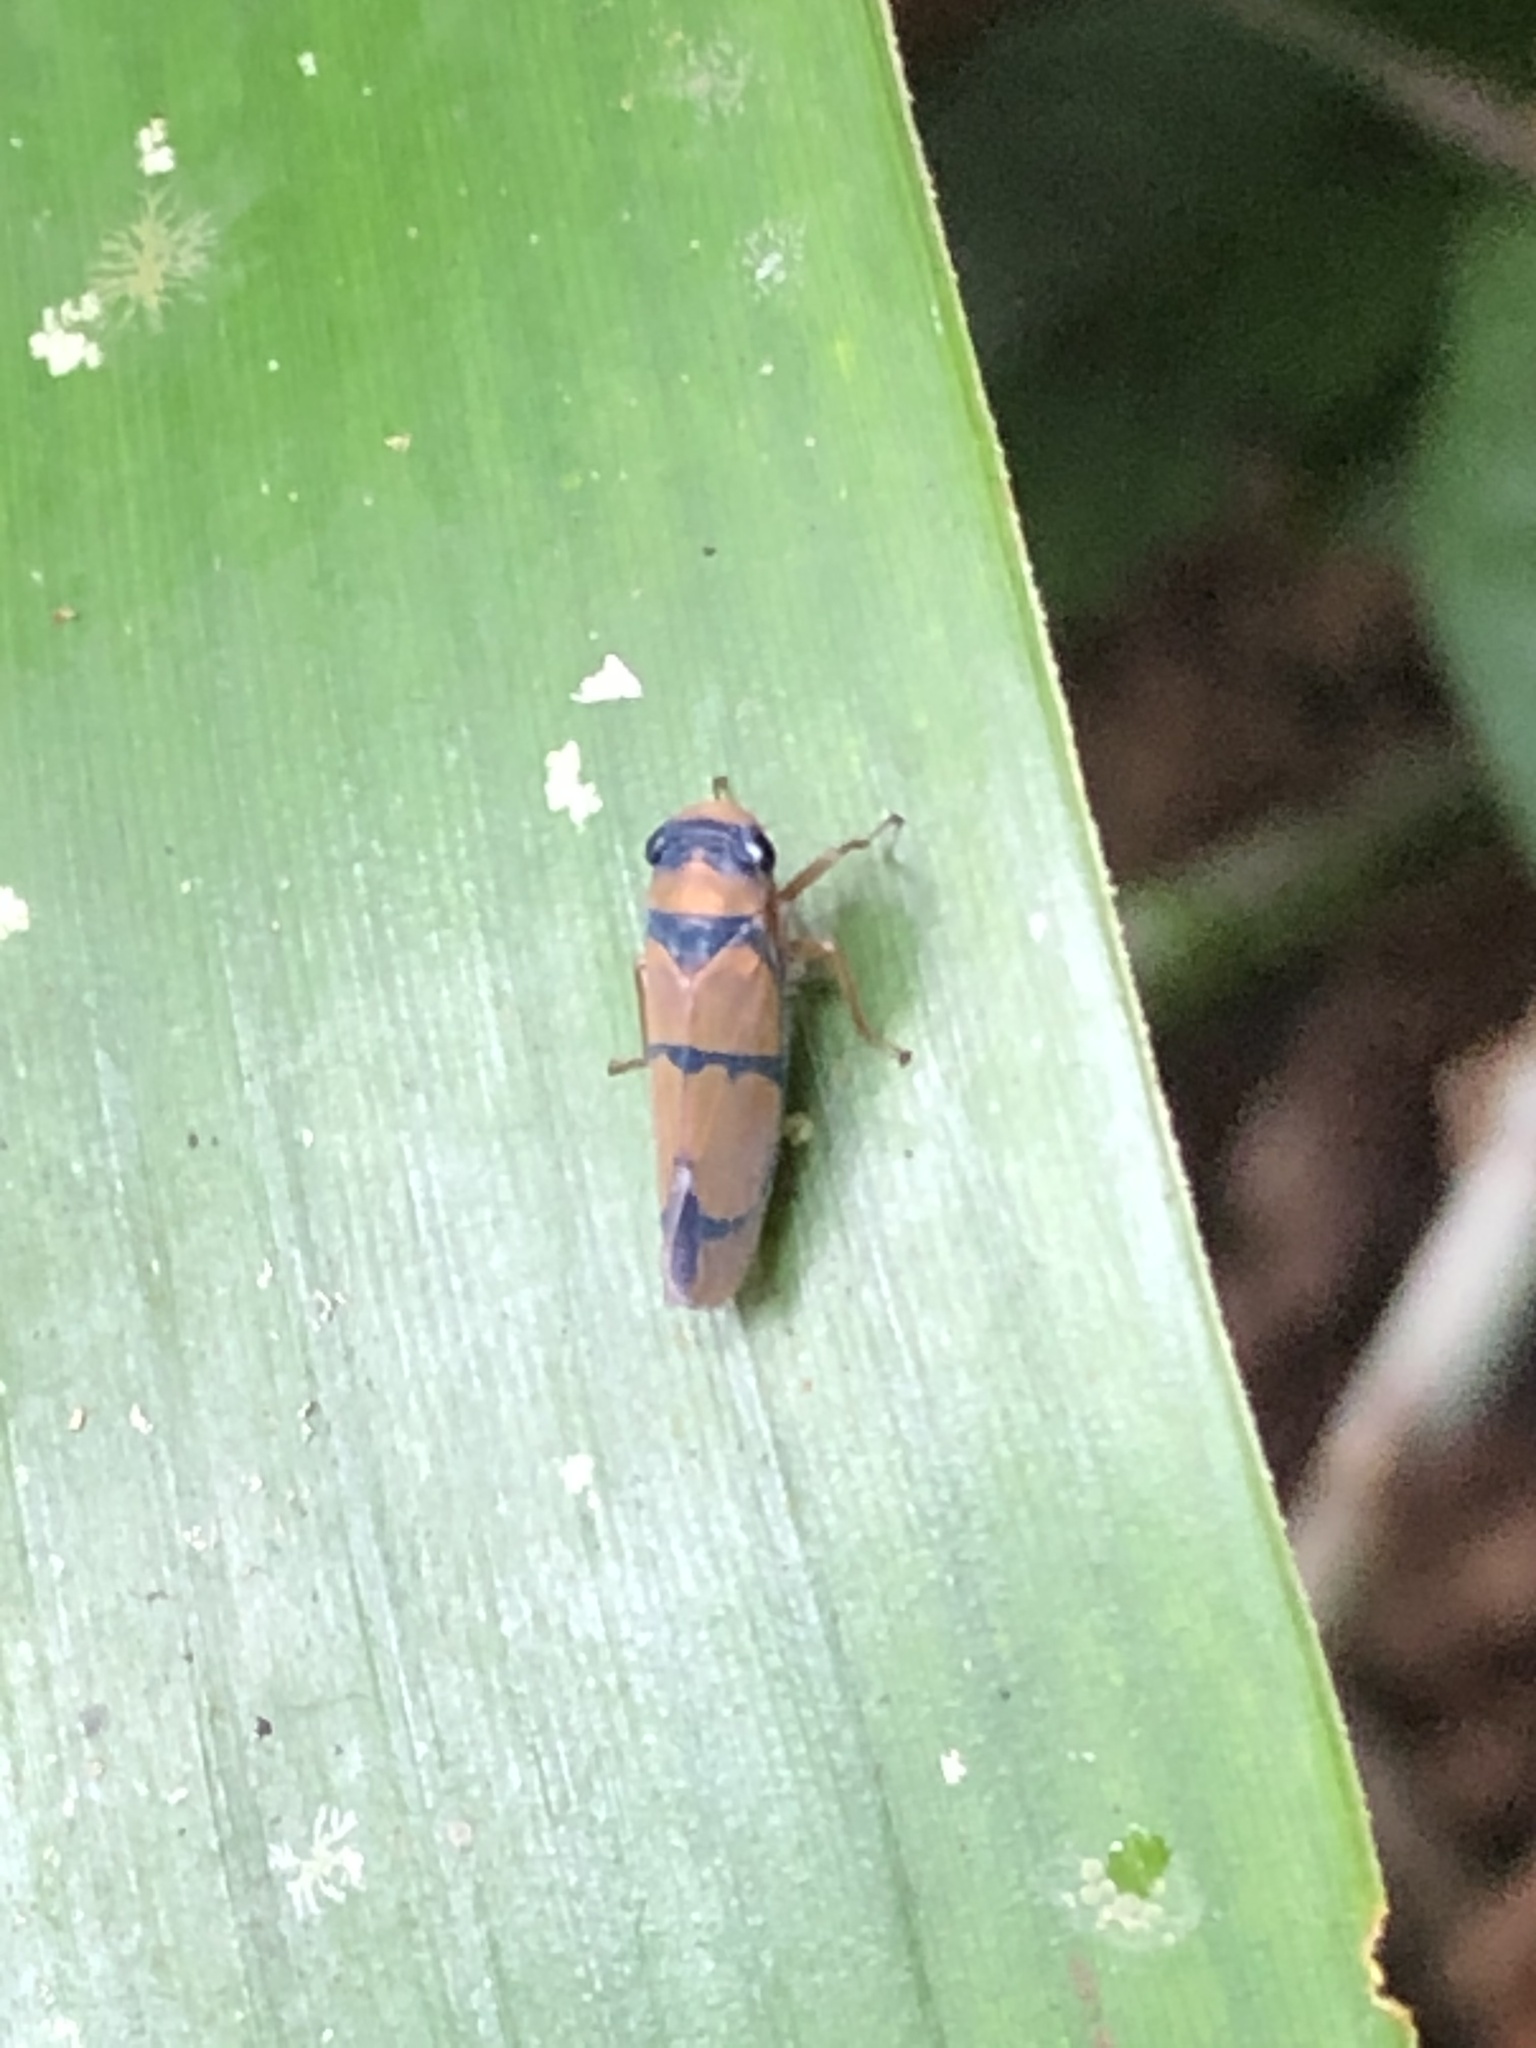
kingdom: Animalia
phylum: Arthropoda
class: Insecta
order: Hemiptera
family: Cicadellidae
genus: Oragua
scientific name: Oragua partitula
